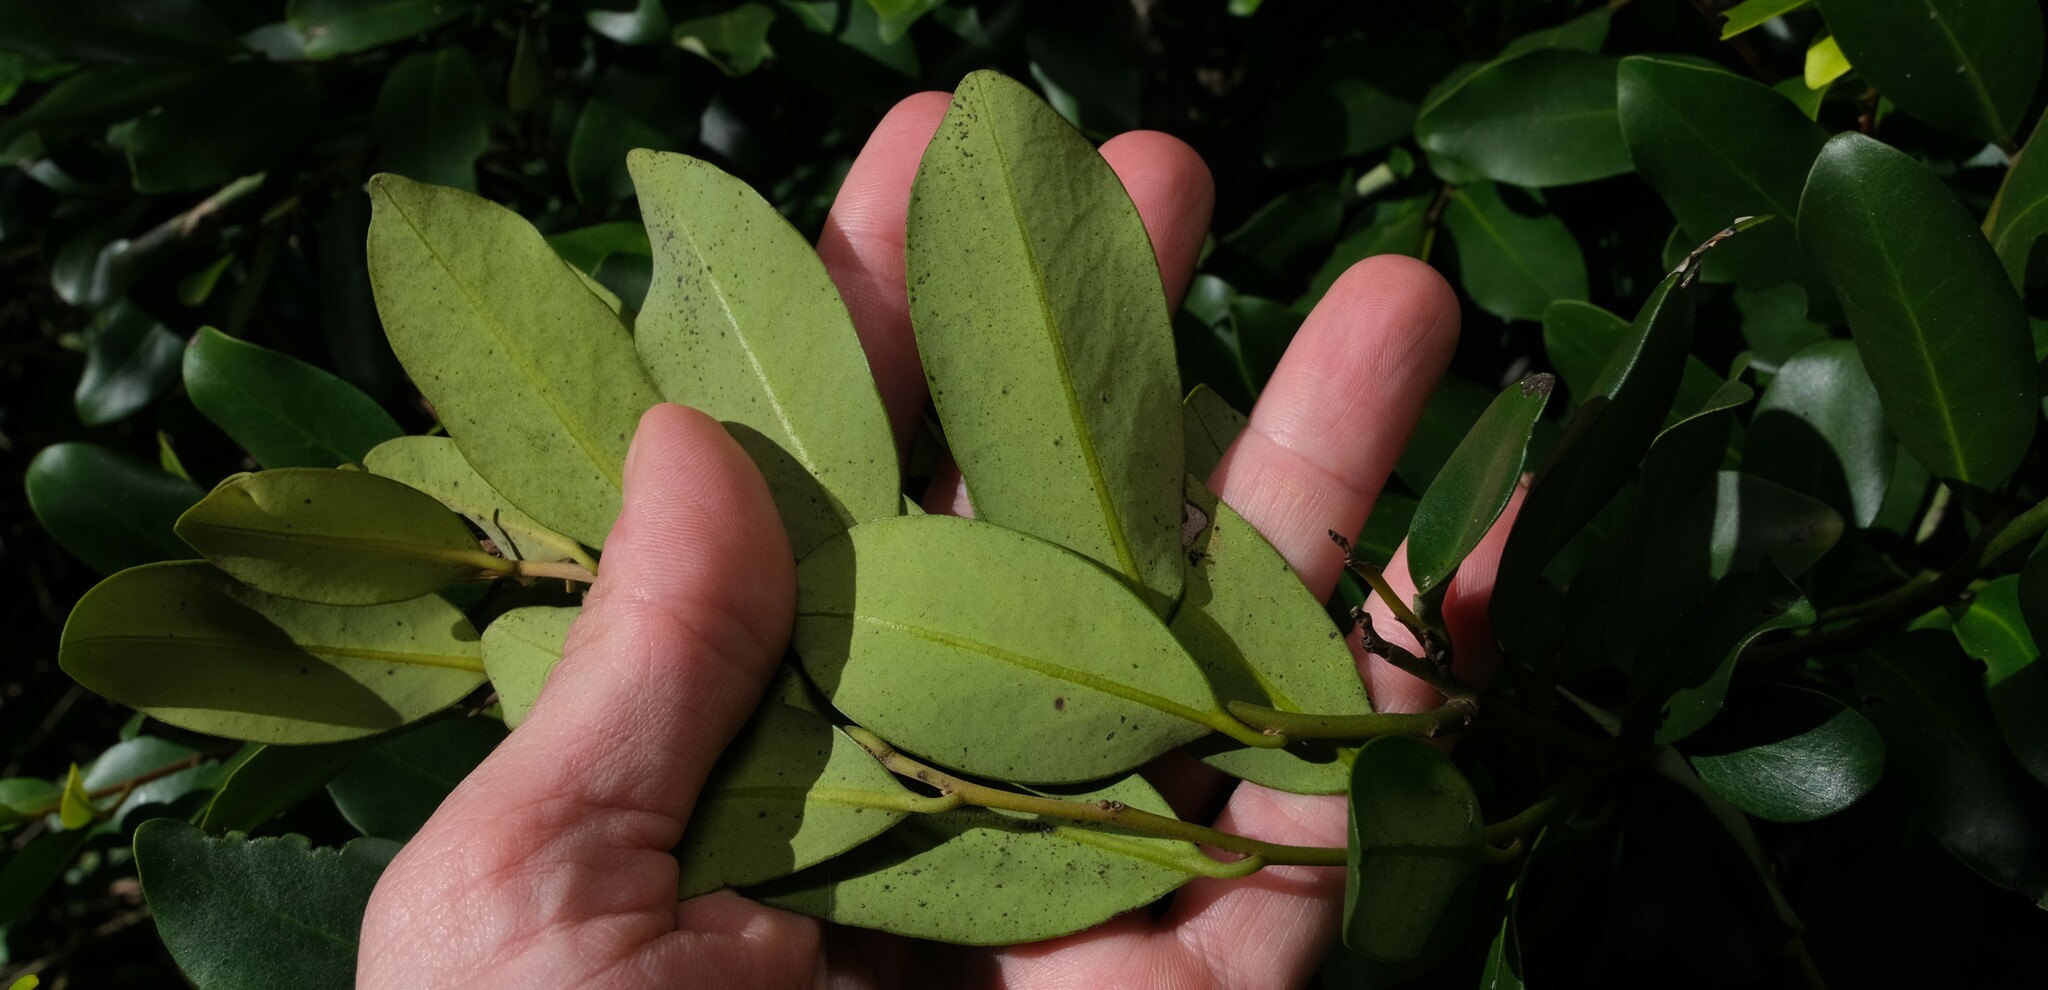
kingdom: Plantae
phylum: Tracheophyta
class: Magnoliopsida
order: Ericales
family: Ebenaceae
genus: Diospyros
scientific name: Diospyros australis
